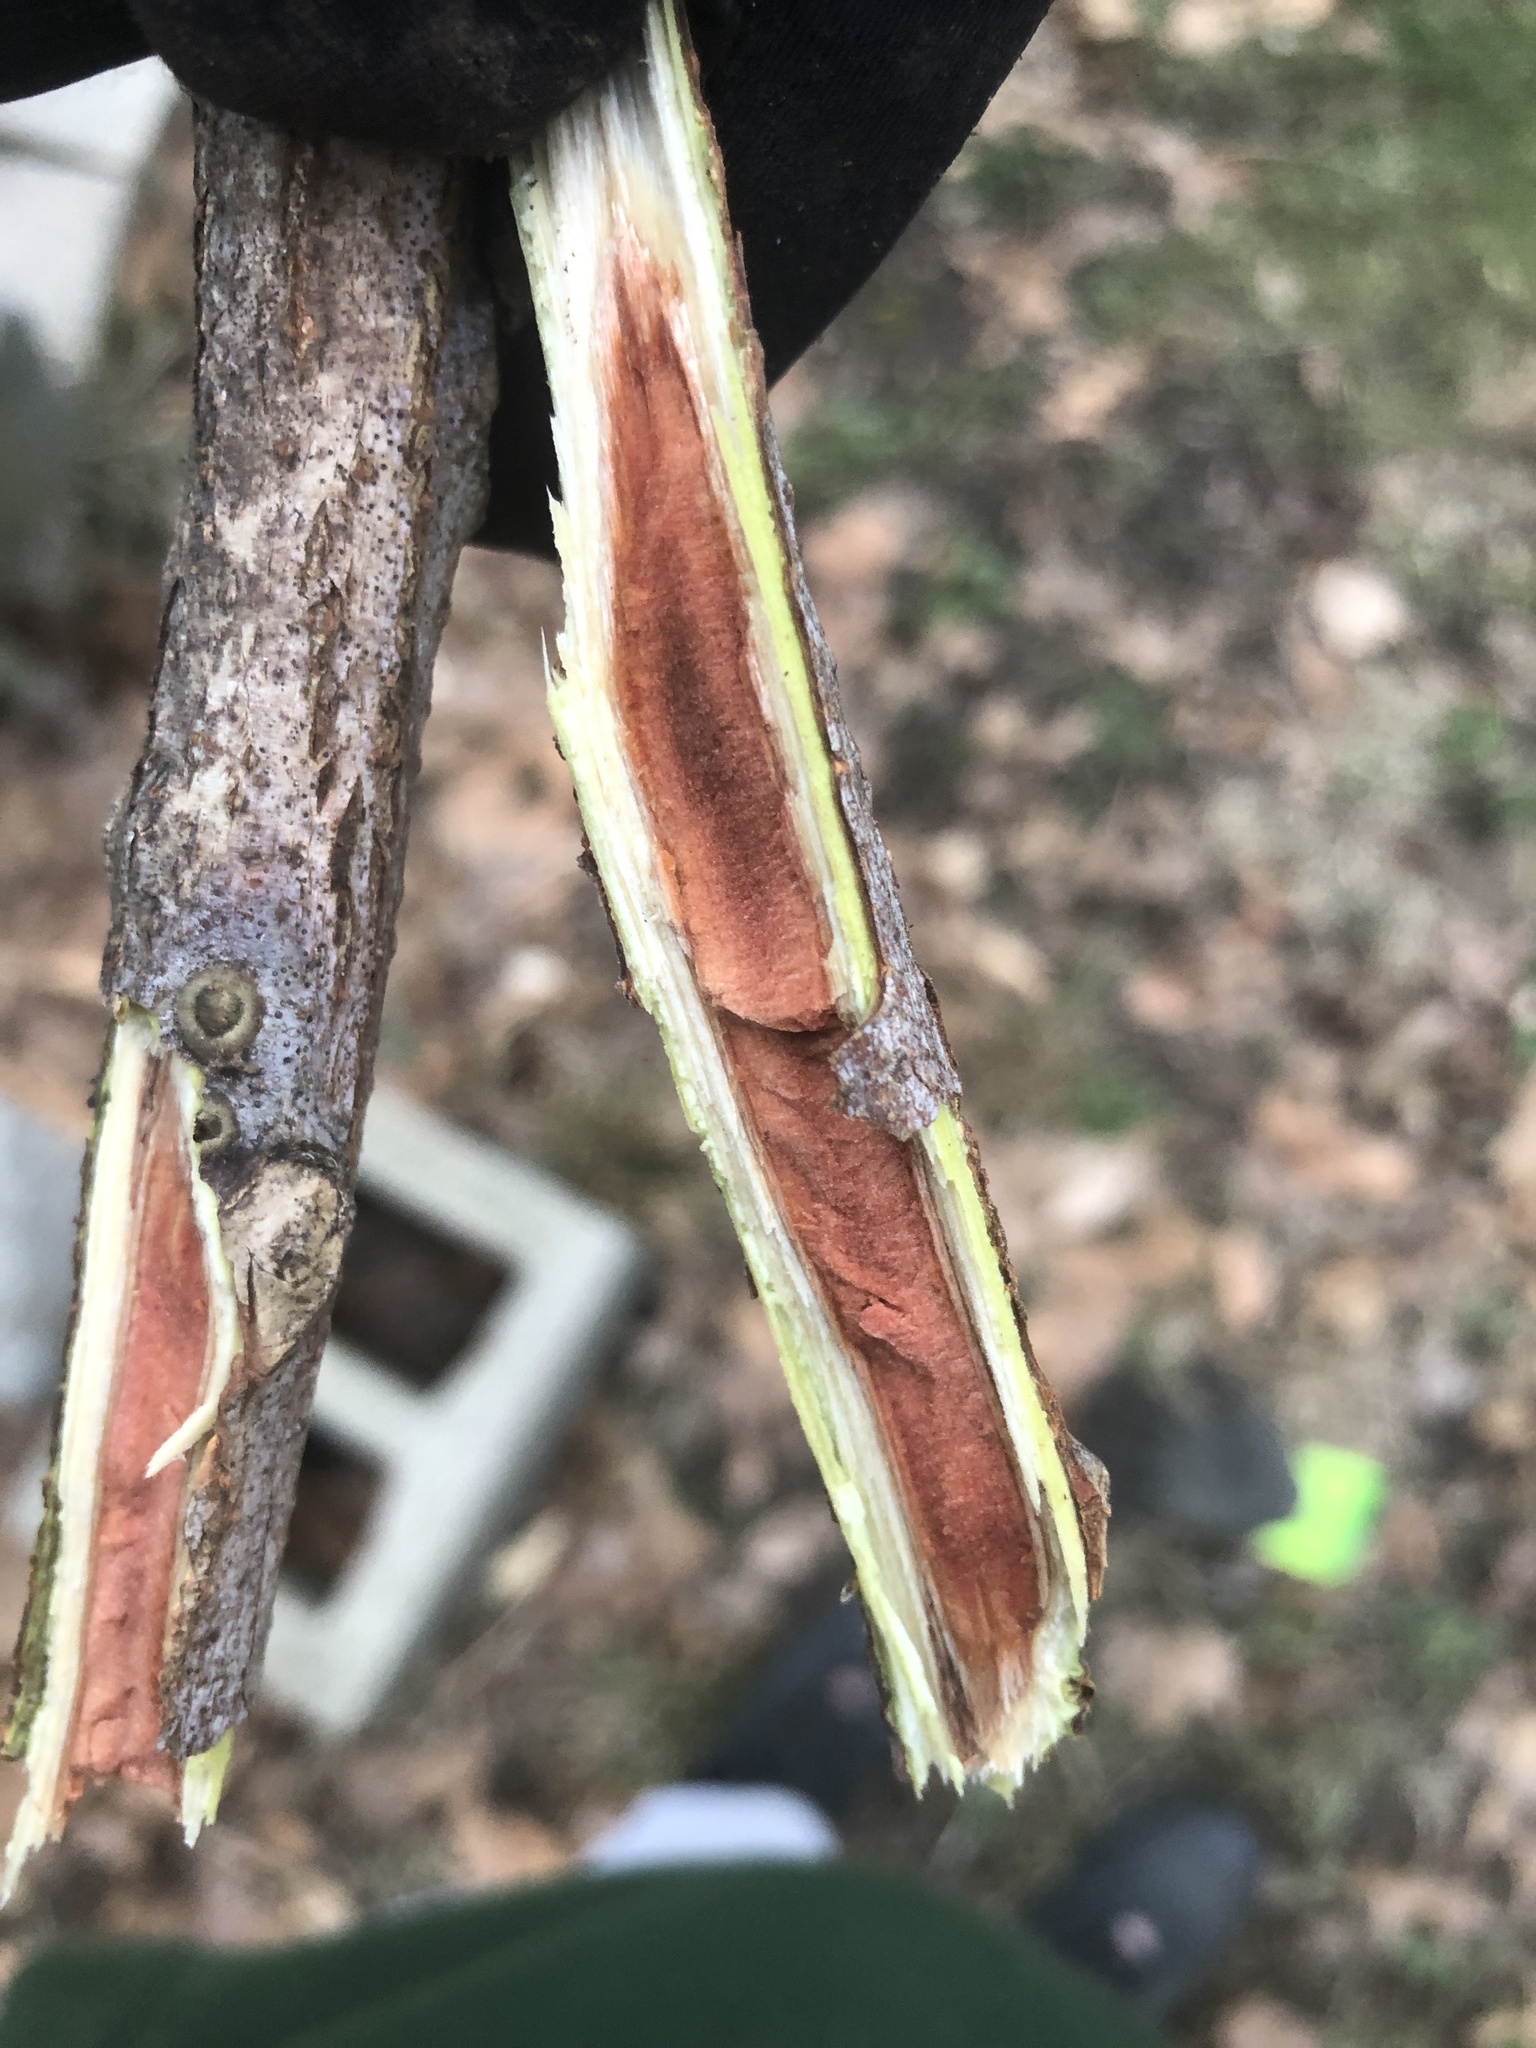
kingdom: Plantae
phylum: Tracheophyta
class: Magnoliopsida
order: Fabales
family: Fabaceae
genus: Gymnocladus
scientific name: Gymnocladus dioicus
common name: Kentucky coffee-tree
